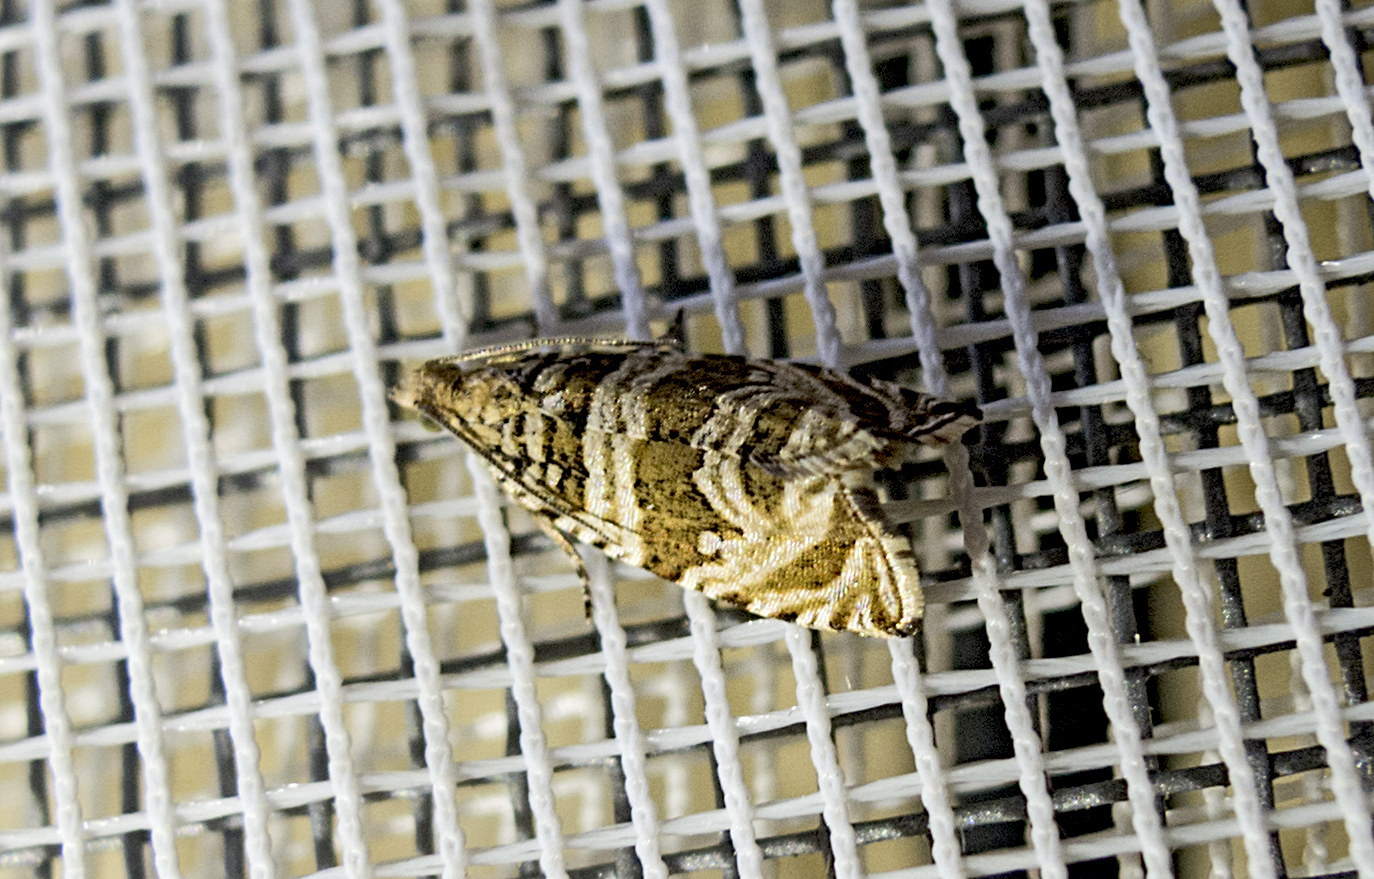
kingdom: Animalia
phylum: Arthropoda
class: Insecta
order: Lepidoptera
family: Tortricidae
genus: Syricoris
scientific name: Syricoris rivulana
